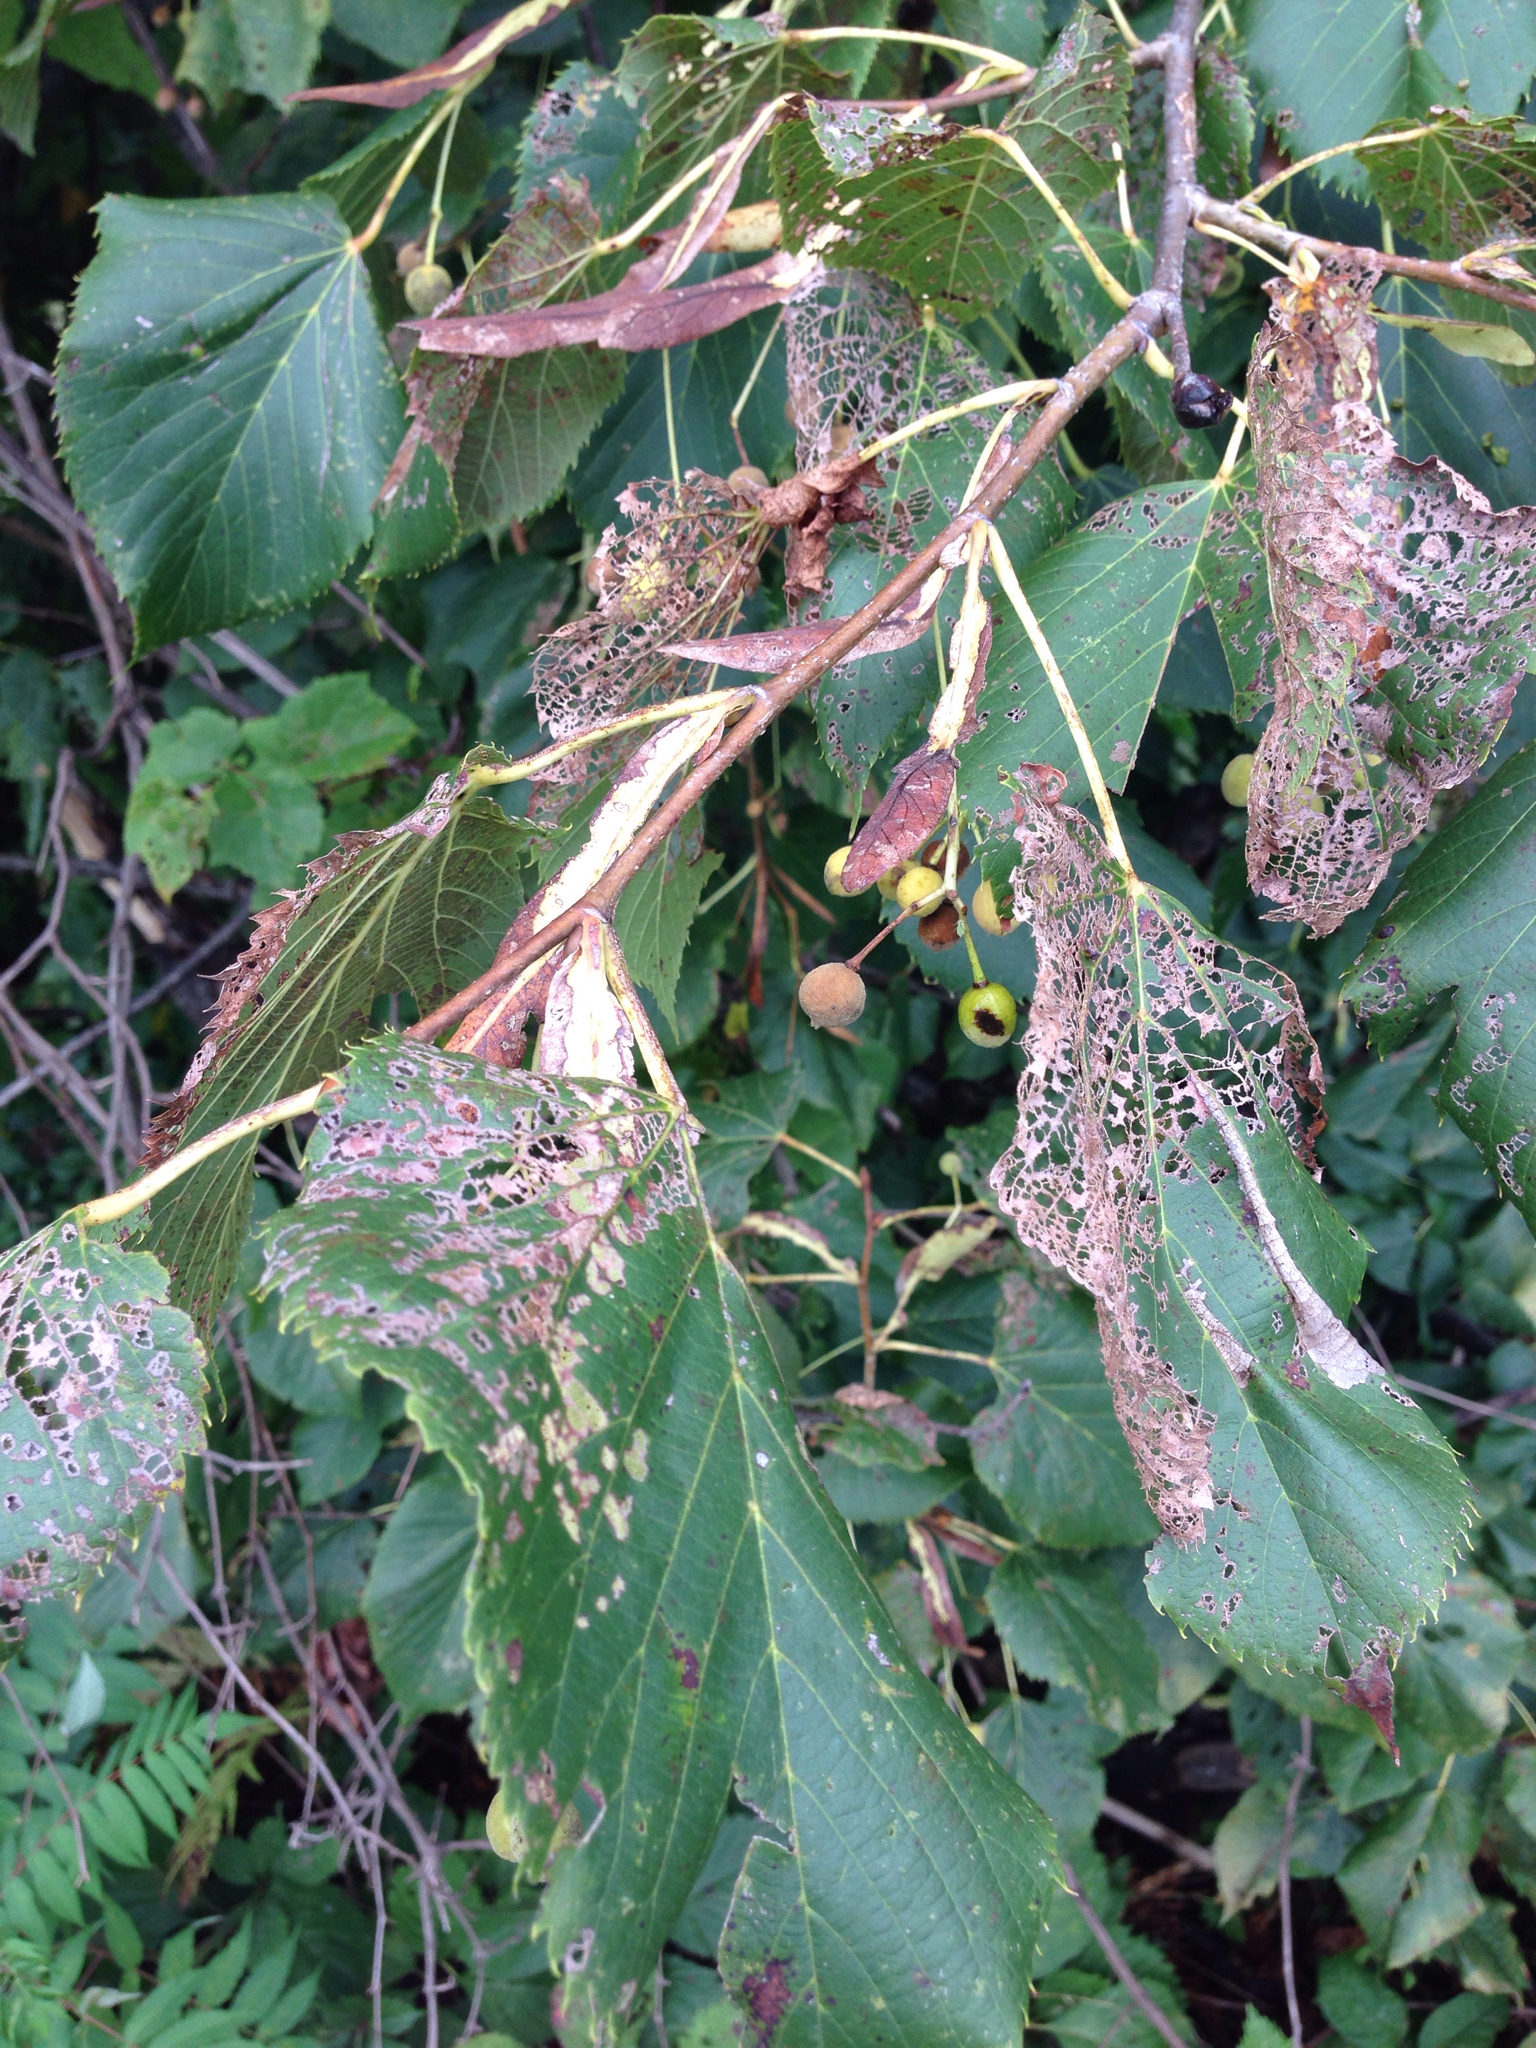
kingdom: Plantae
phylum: Tracheophyta
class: Magnoliopsida
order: Malvales
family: Malvaceae
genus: Tilia
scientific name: Tilia americana
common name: Basswood
